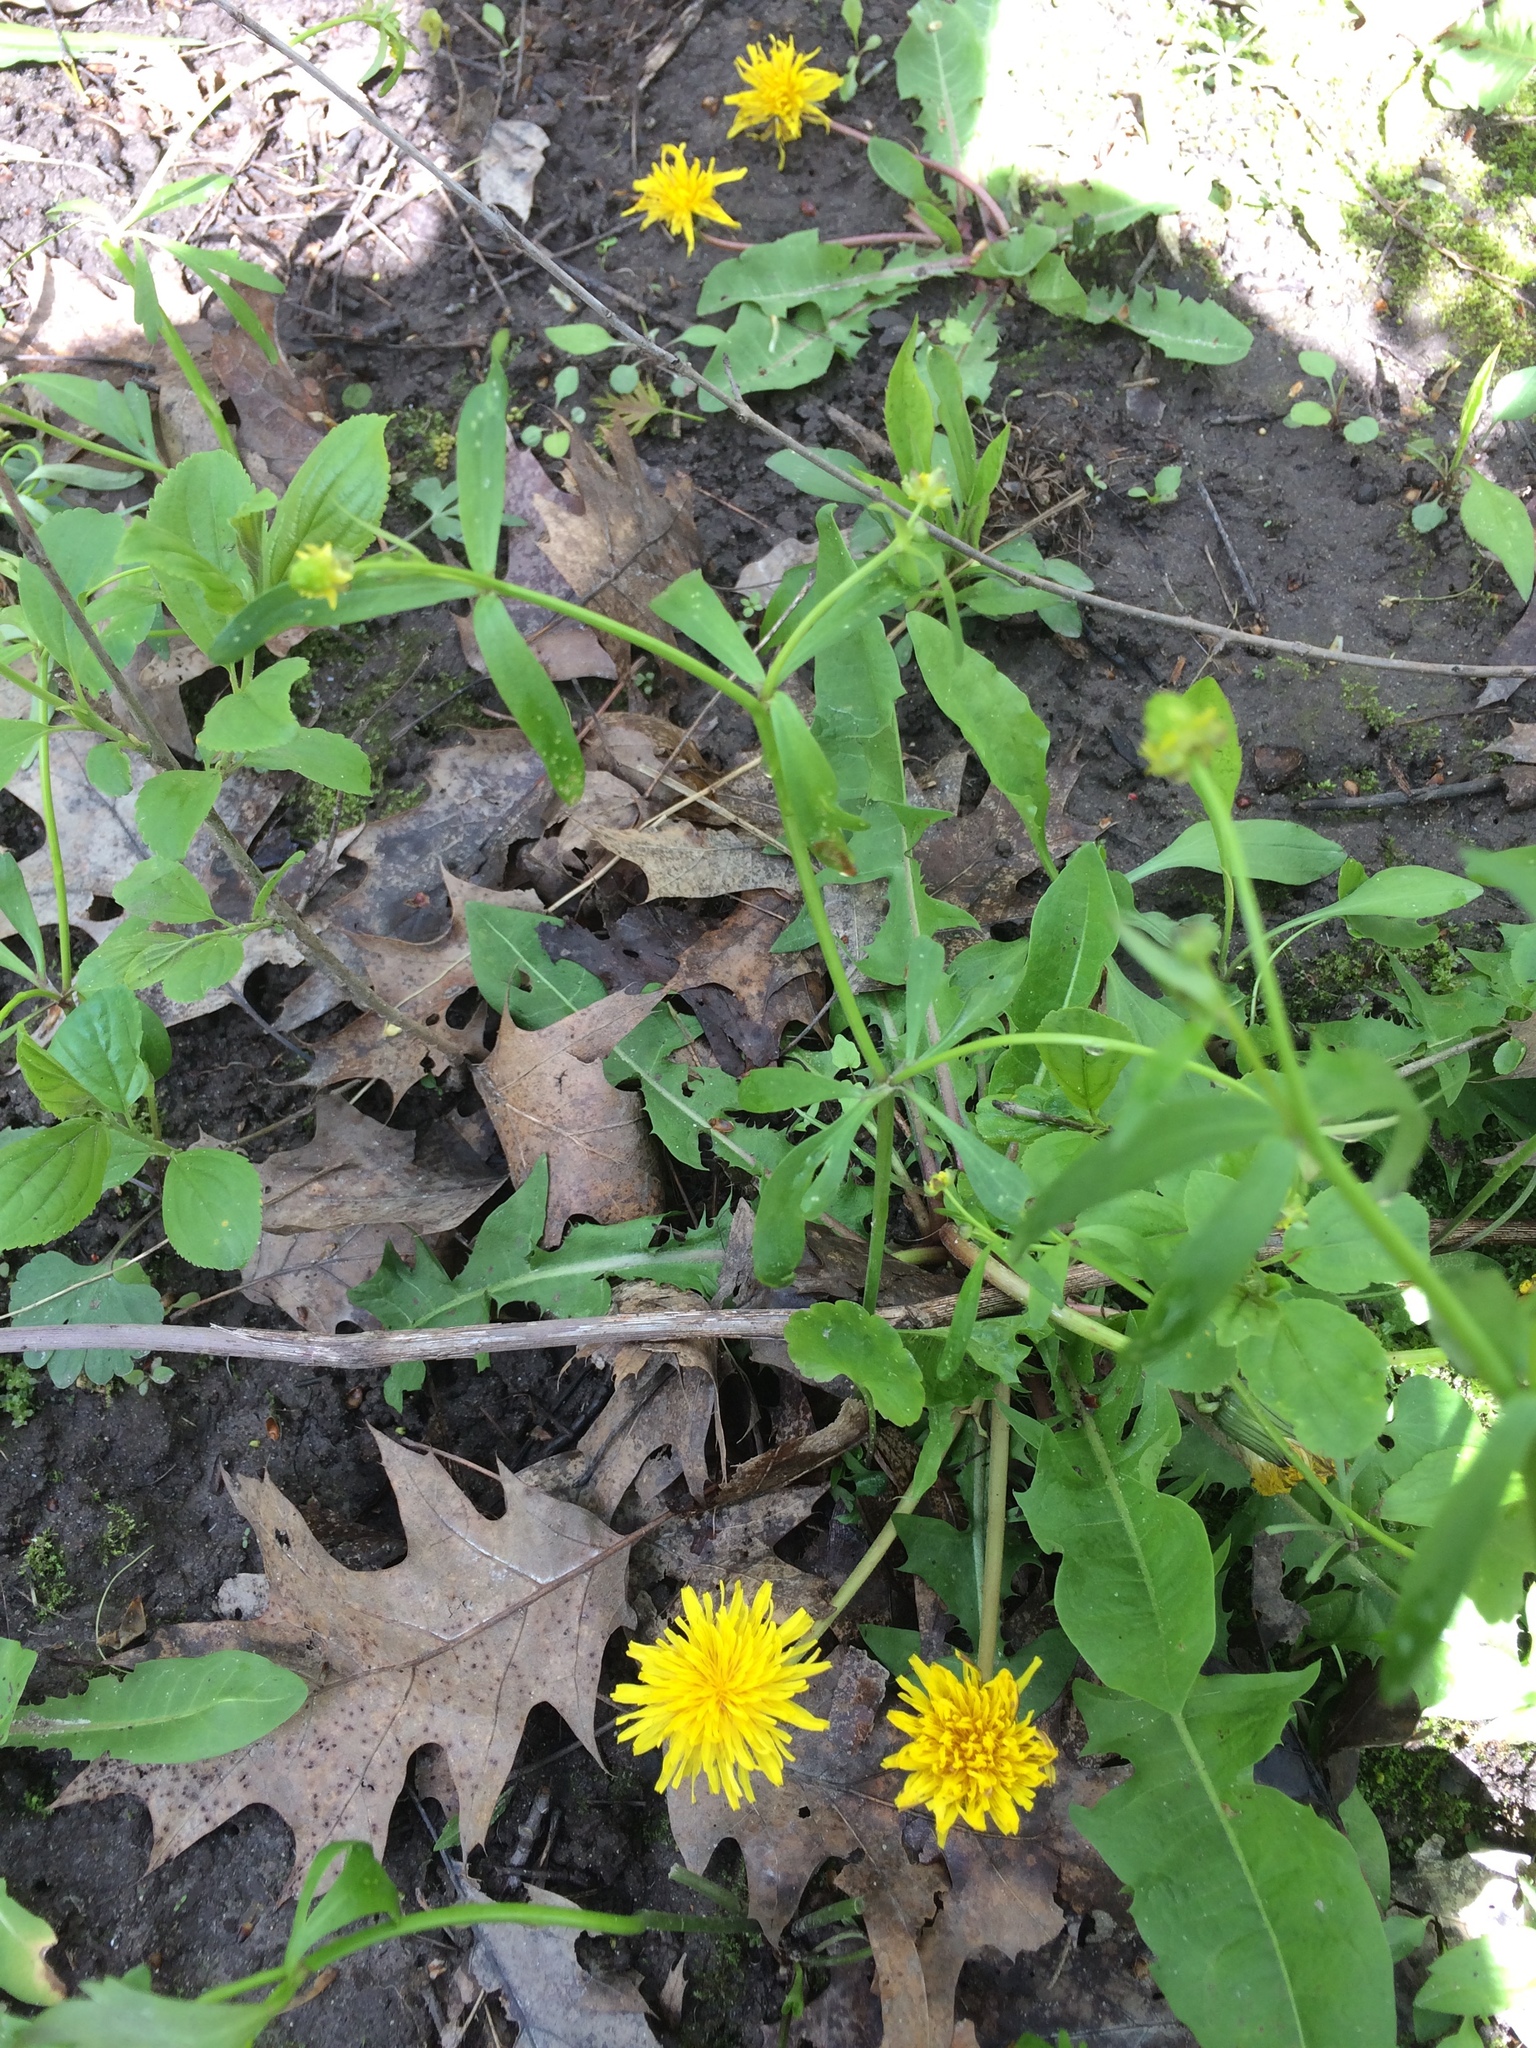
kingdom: Plantae
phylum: Tracheophyta
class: Magnoliopsida
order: Ranunculales
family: Ranunculaceae
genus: Ranunculus
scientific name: Ranunculus abortivus
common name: Early wood buttercup
